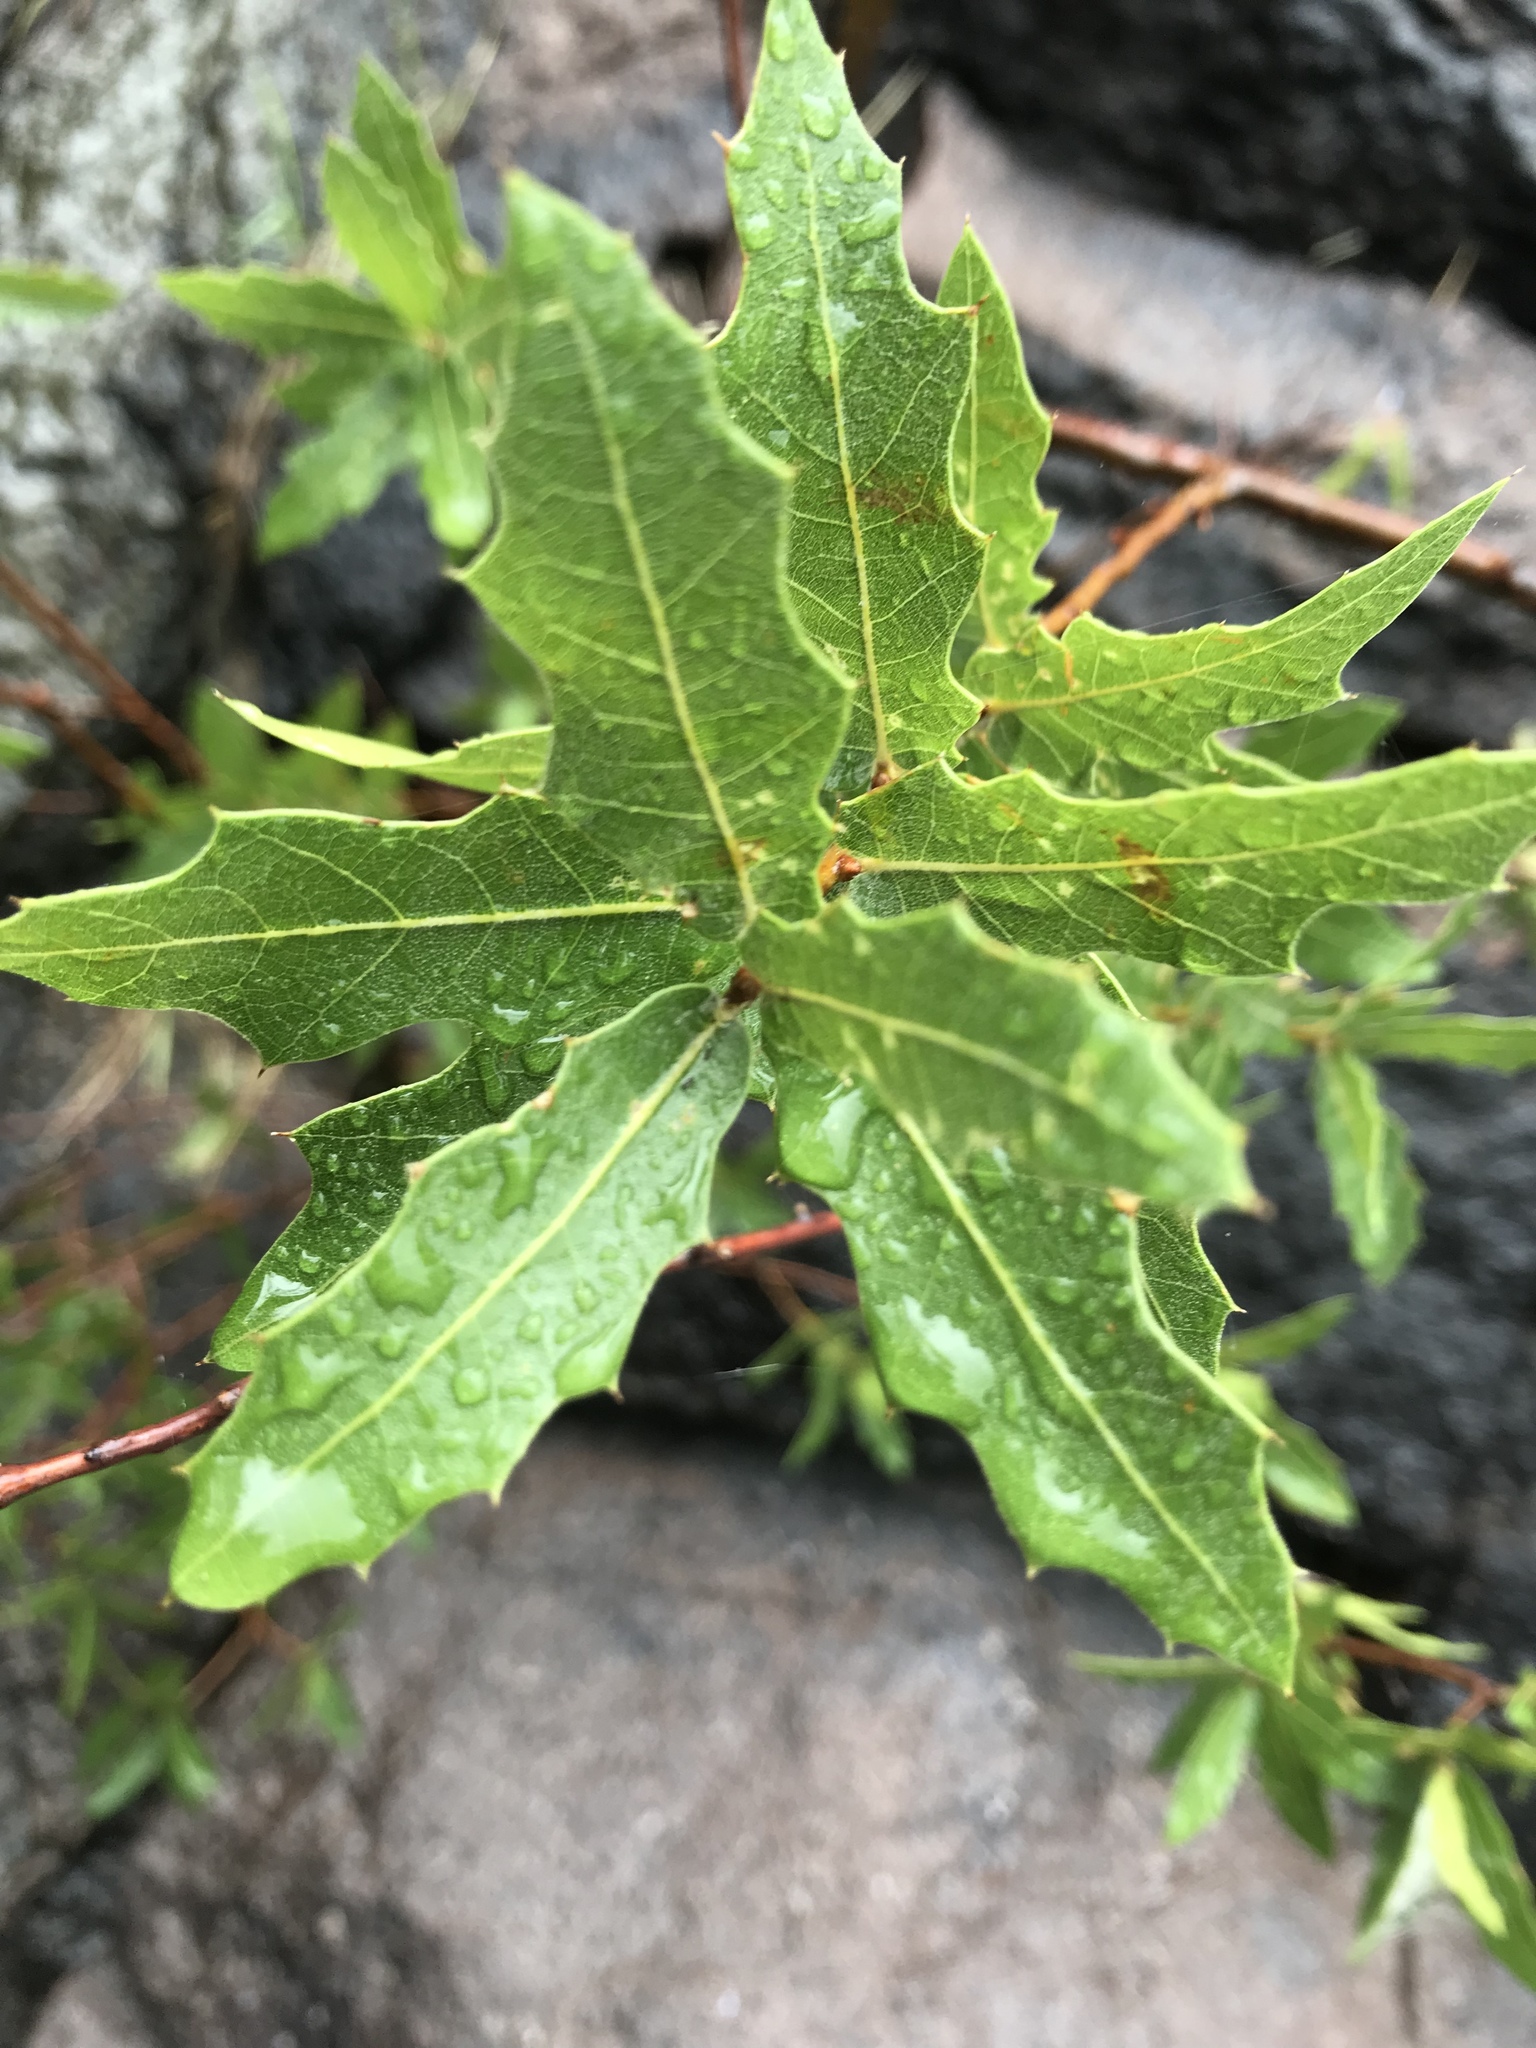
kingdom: Plantae
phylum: Tracheophyta
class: Magnoliopsida
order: Fagales
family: Fagaceae
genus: Quercus
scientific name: Quercus emoryi
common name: Emory oak
